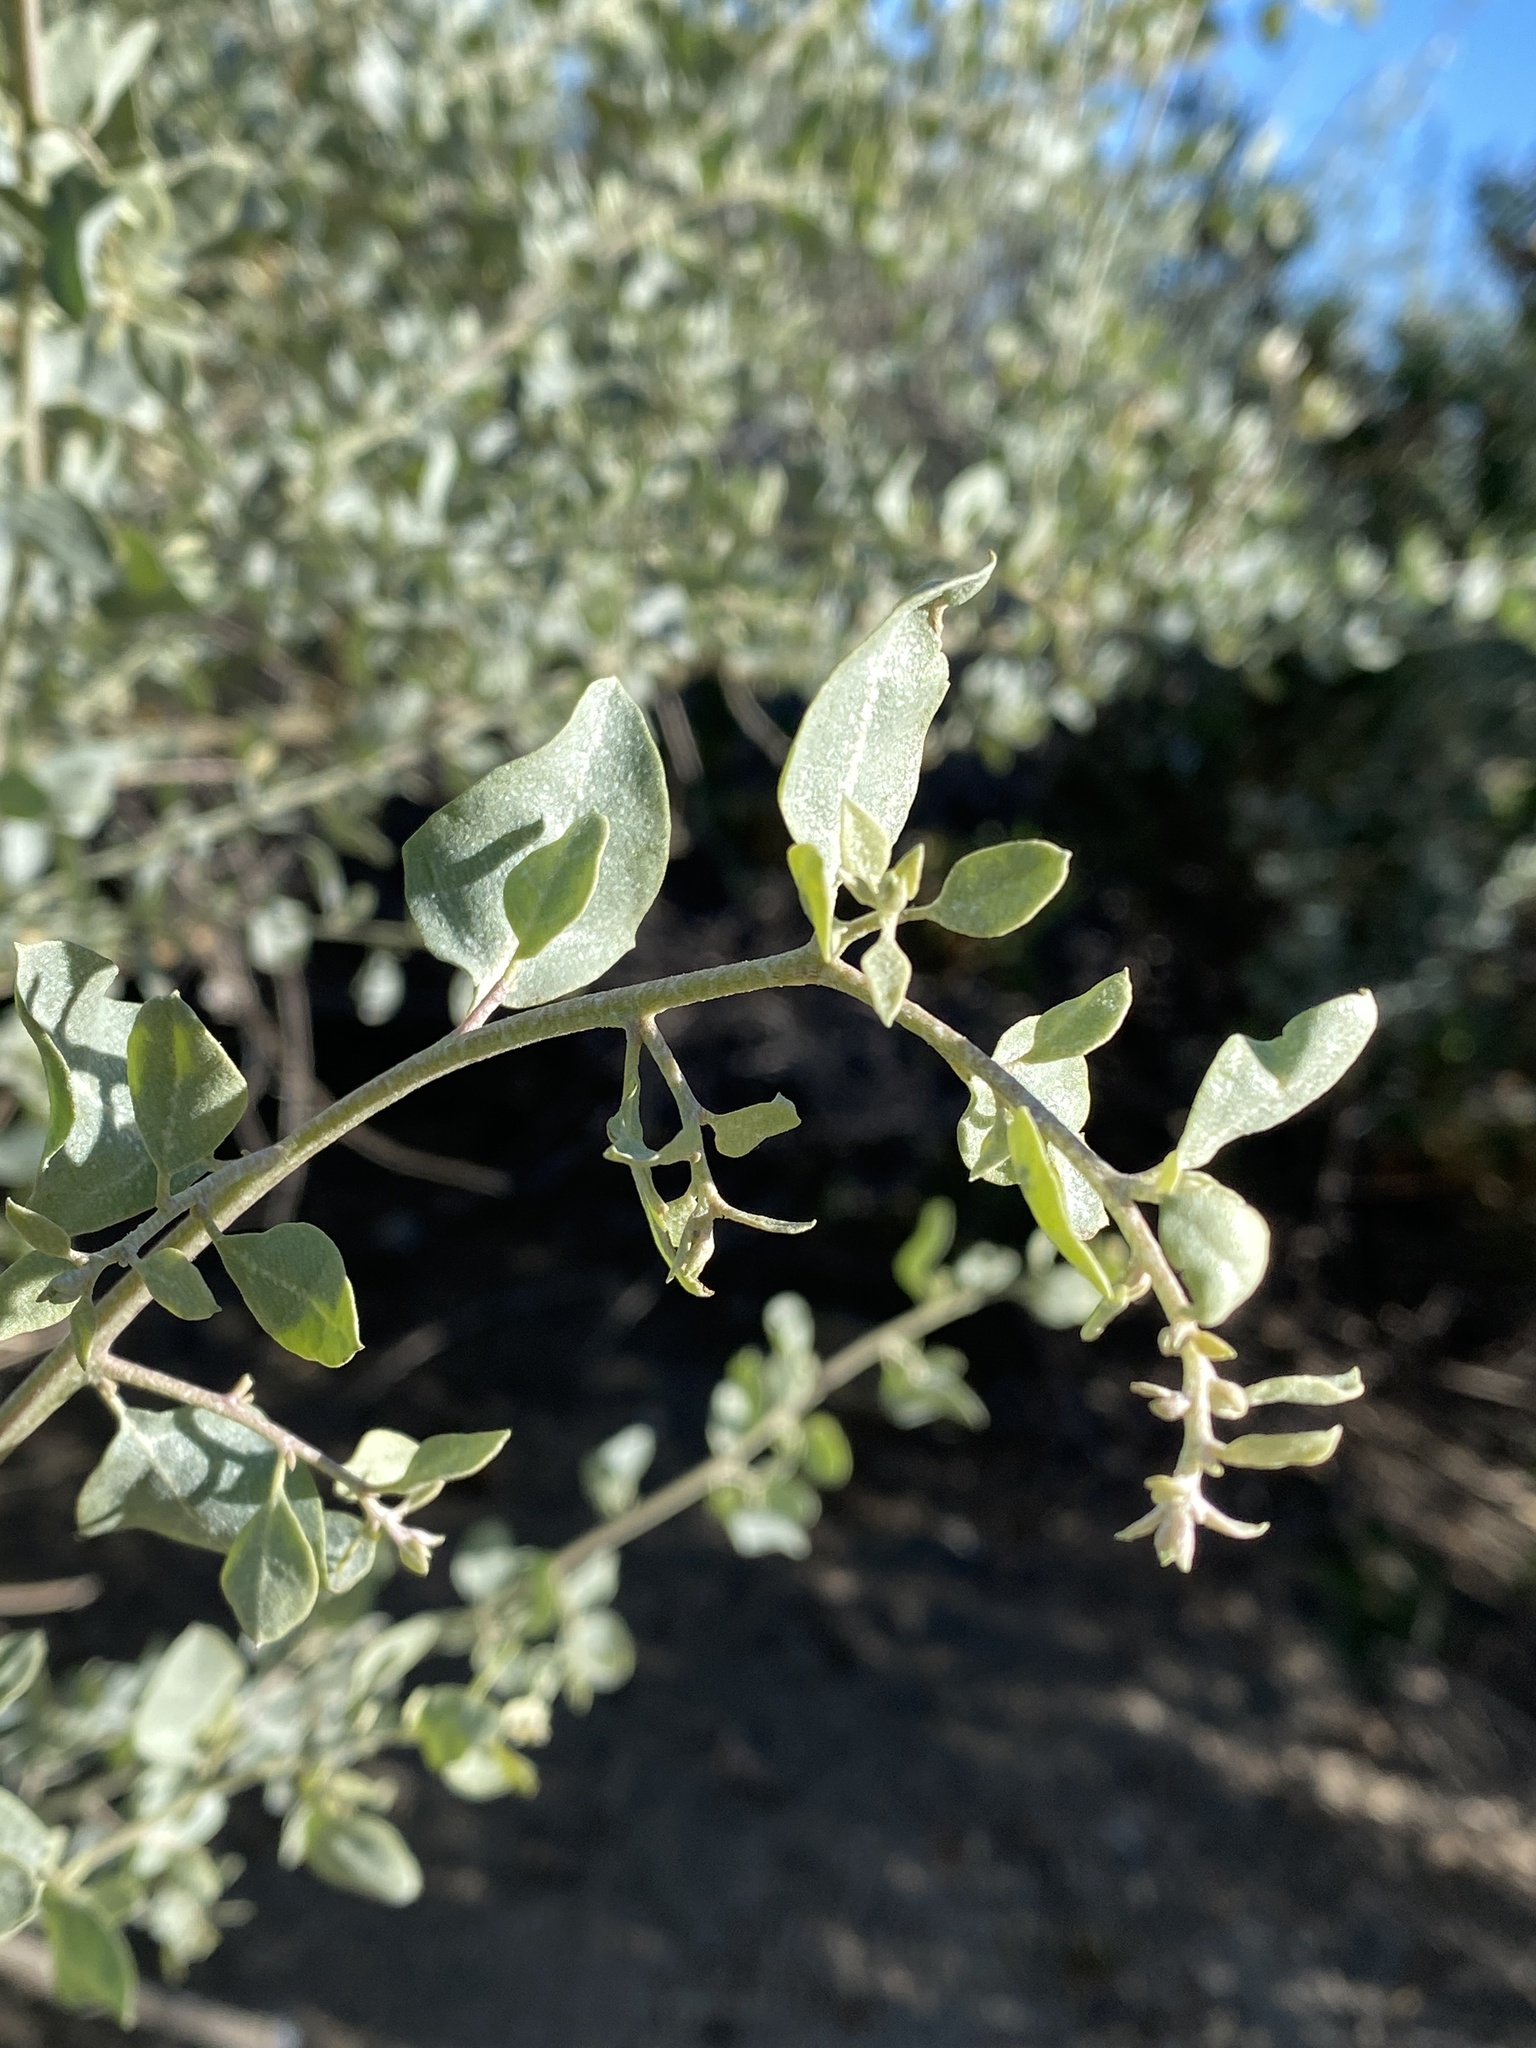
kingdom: Plantae
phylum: Tracheophyta
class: Magnoliopsida
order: Caryophyllales
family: Amaranthaceae
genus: Atriplex
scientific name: Atriplex lentiformis
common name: Big saltbush
